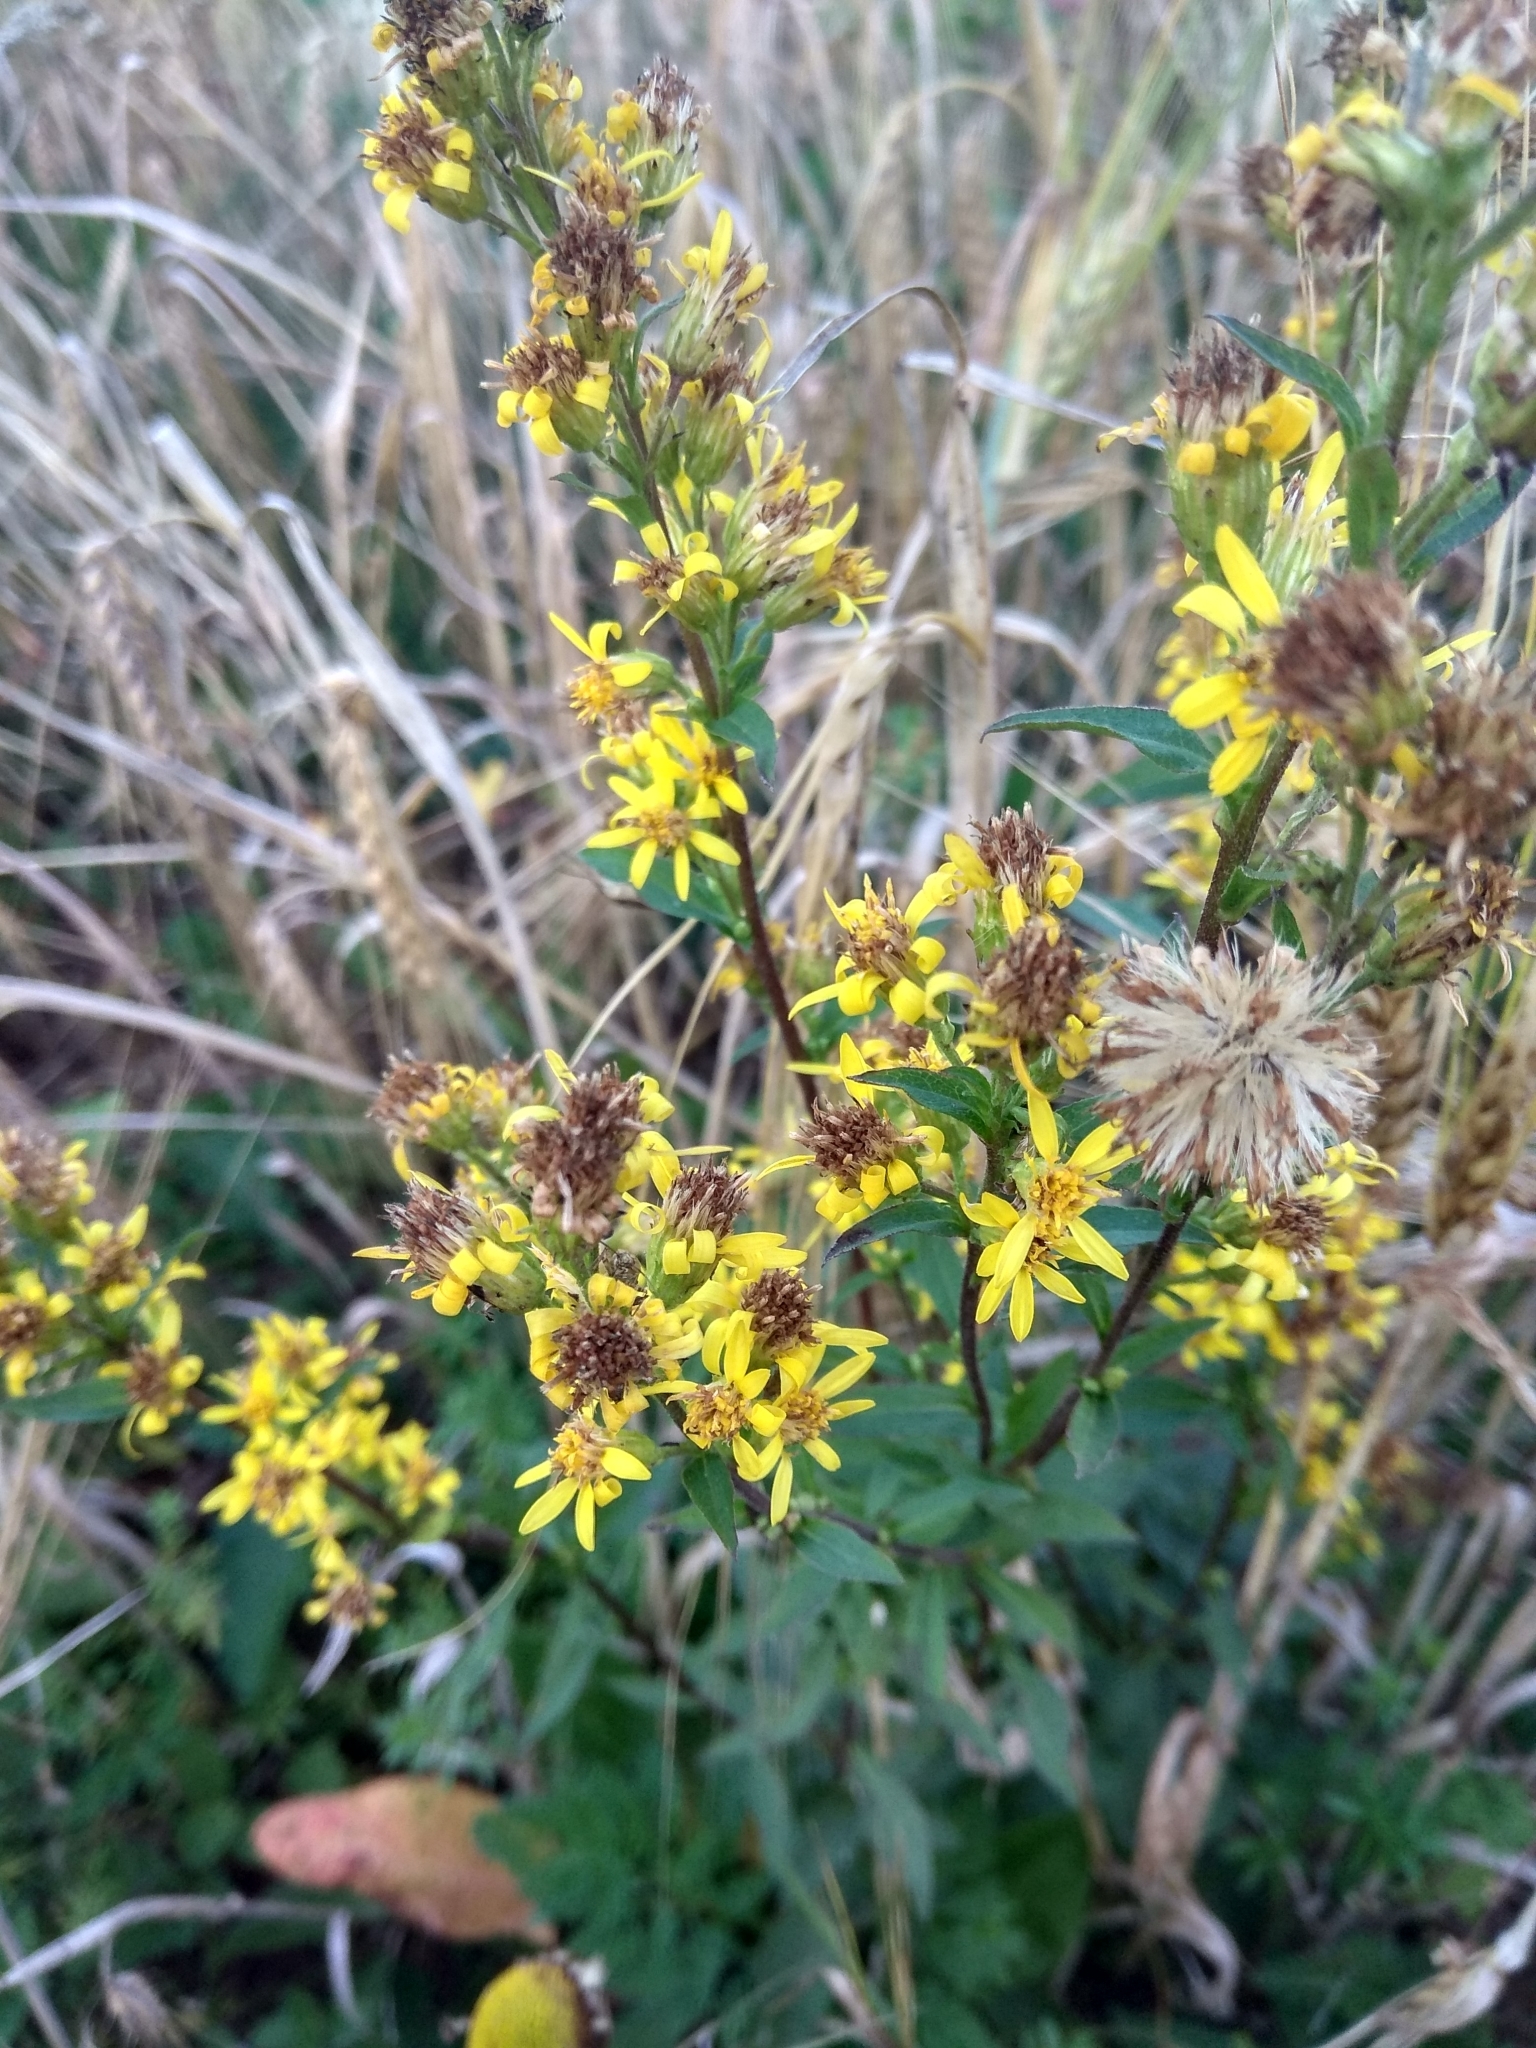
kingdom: Plantae
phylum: Tracheophyta
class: Magnoliopsida
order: Asterales
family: Asteraceae
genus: Solidago
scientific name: Solidago virgaurea
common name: Goldenrod
